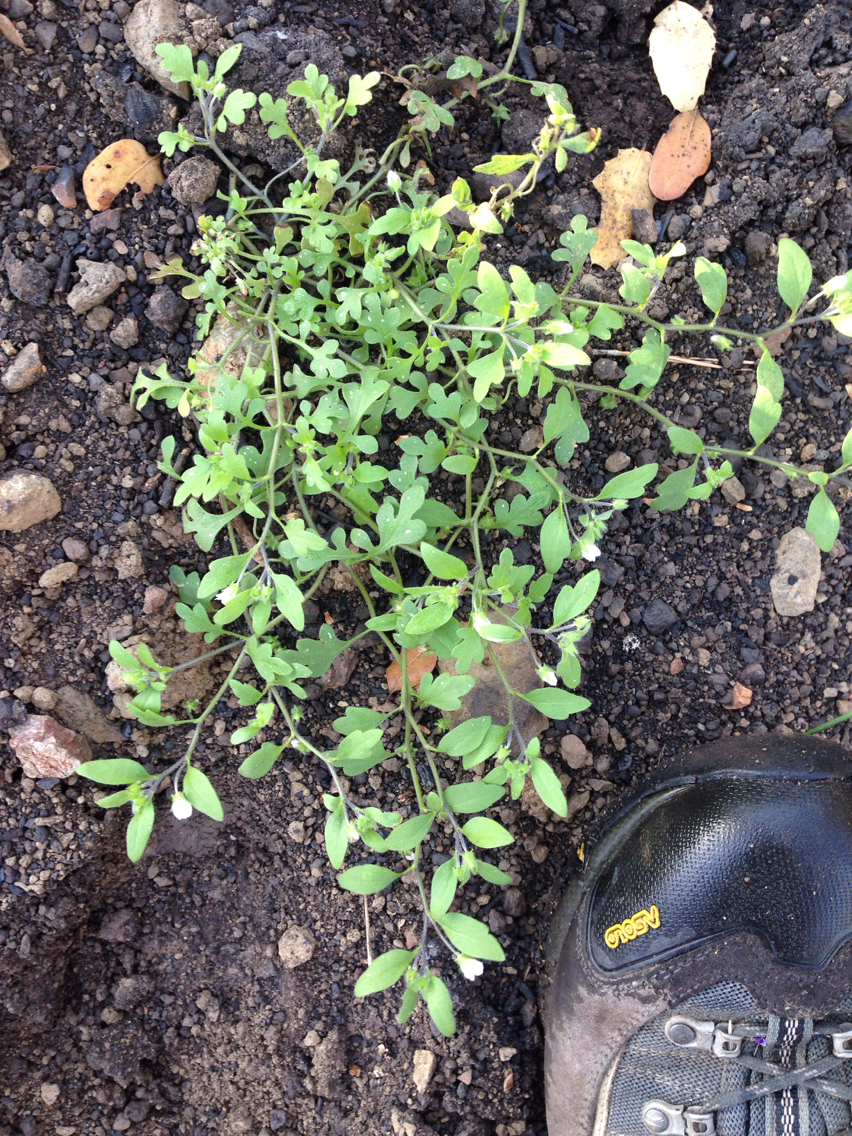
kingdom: Plantae
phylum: Tracheophyta
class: Magnoliopsida
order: Boraginales
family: Hydrophyllaceae
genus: Nemophila
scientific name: Nemophila heterophylla
